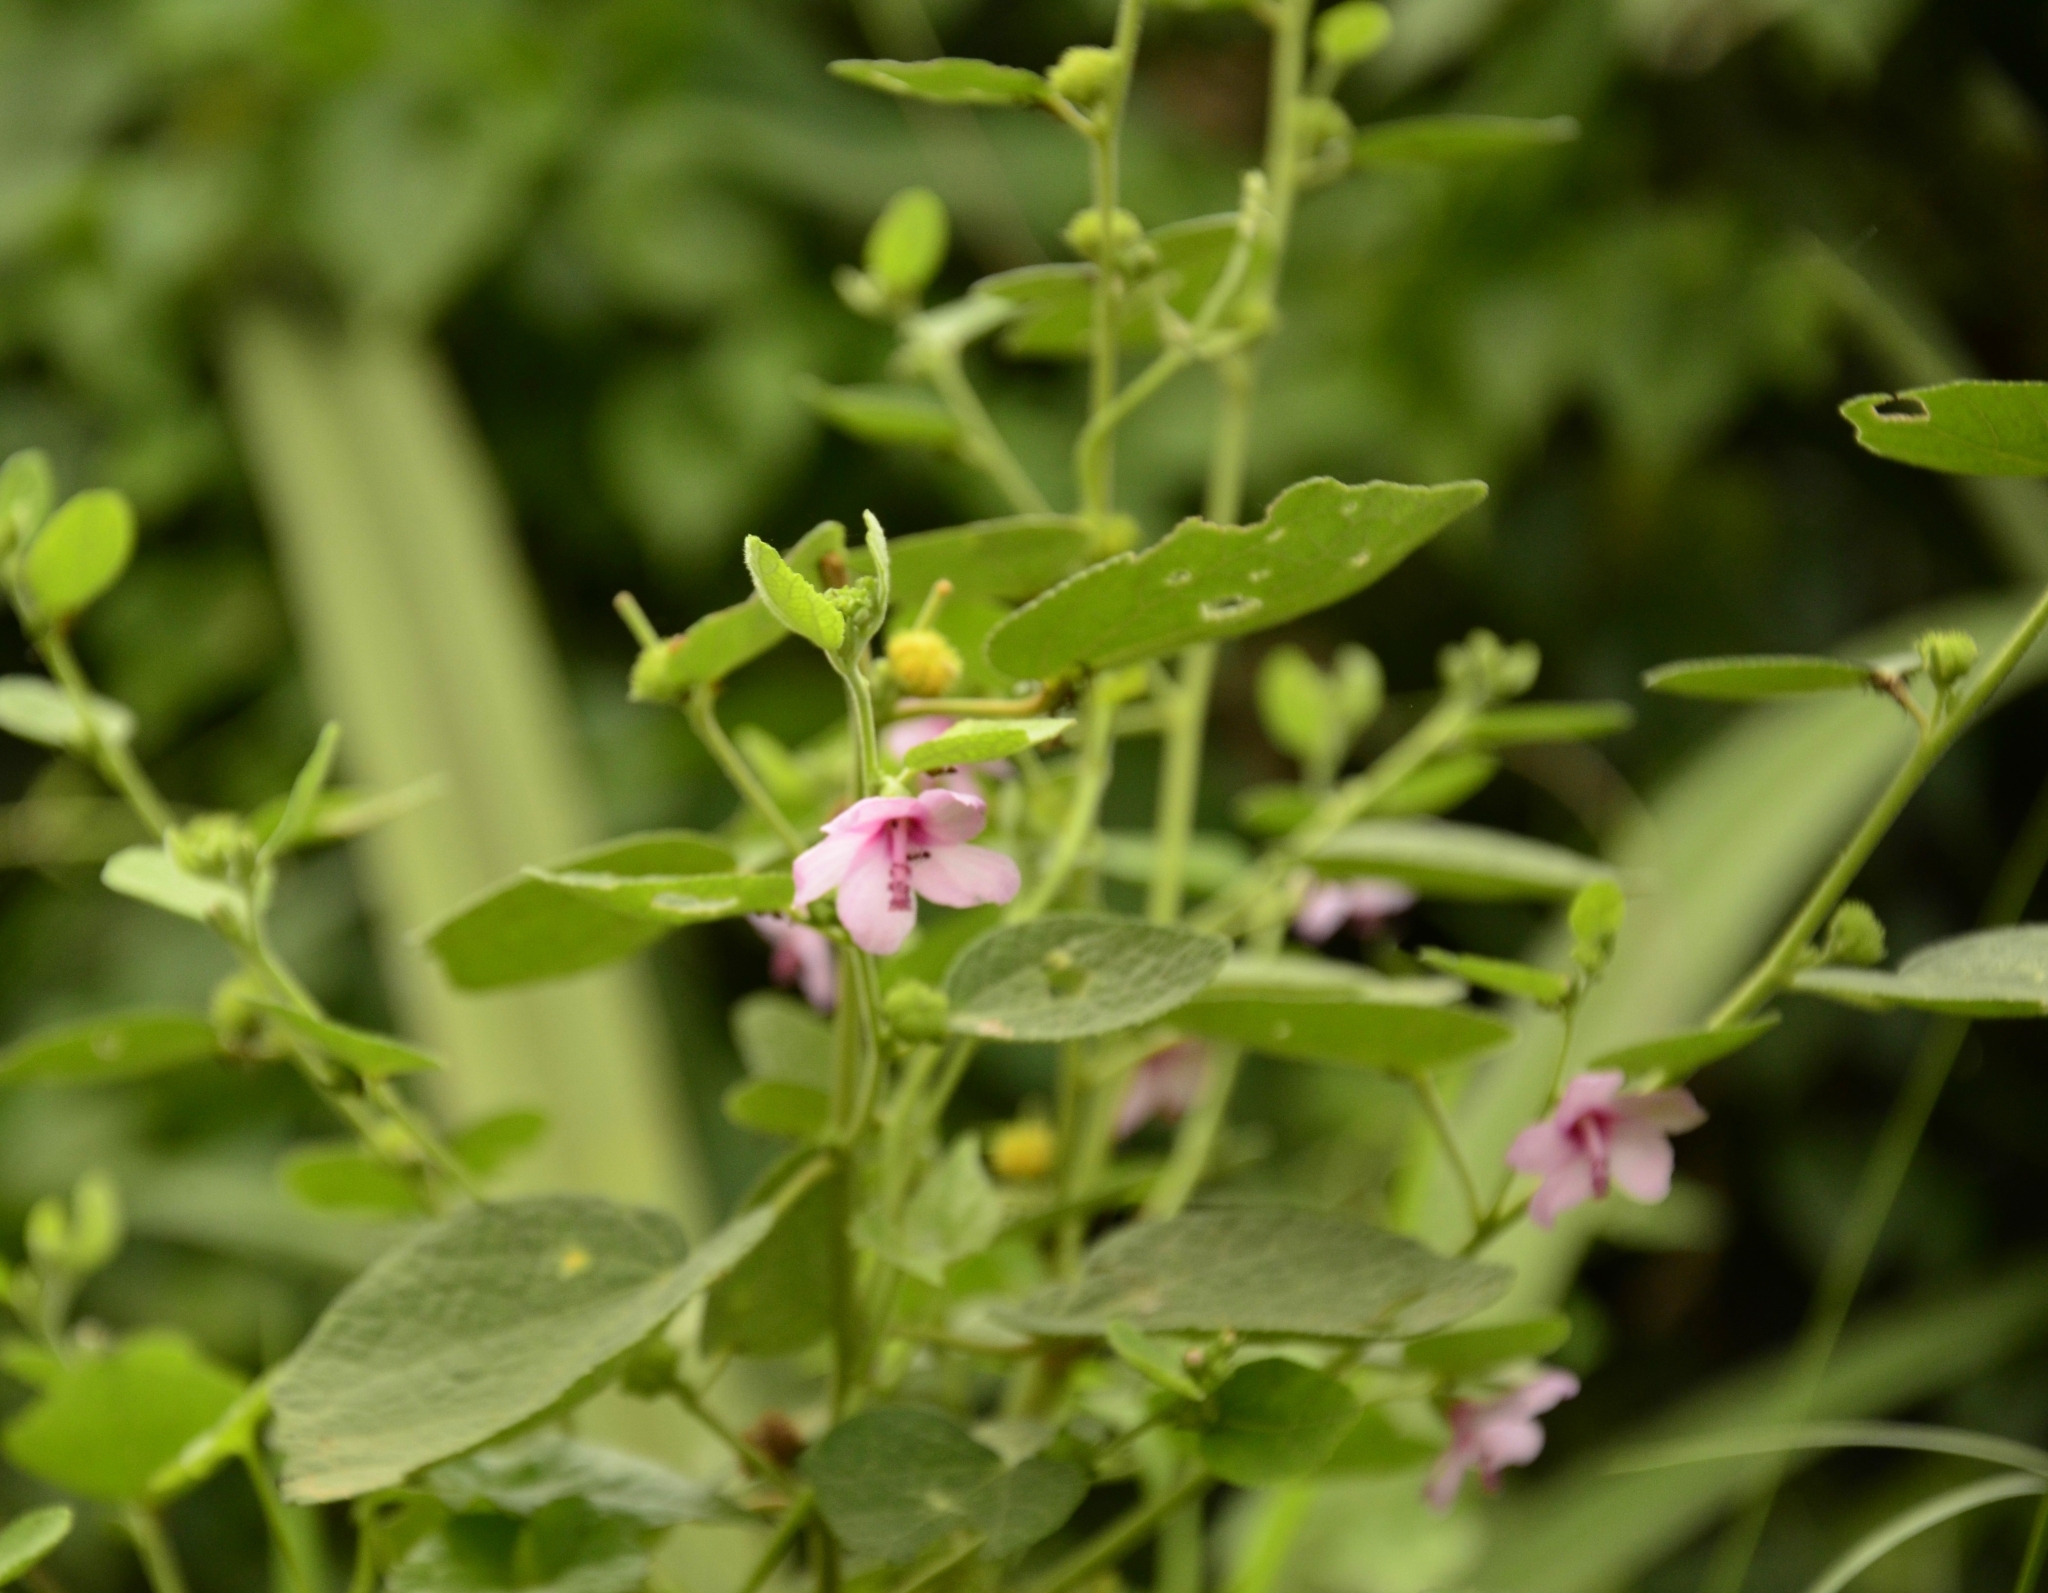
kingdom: Plantae
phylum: Tracheophyta
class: Magnoliopsida
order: Malvales
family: Malvaceae
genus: Urena
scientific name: Urena lobata
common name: Caesarweed
